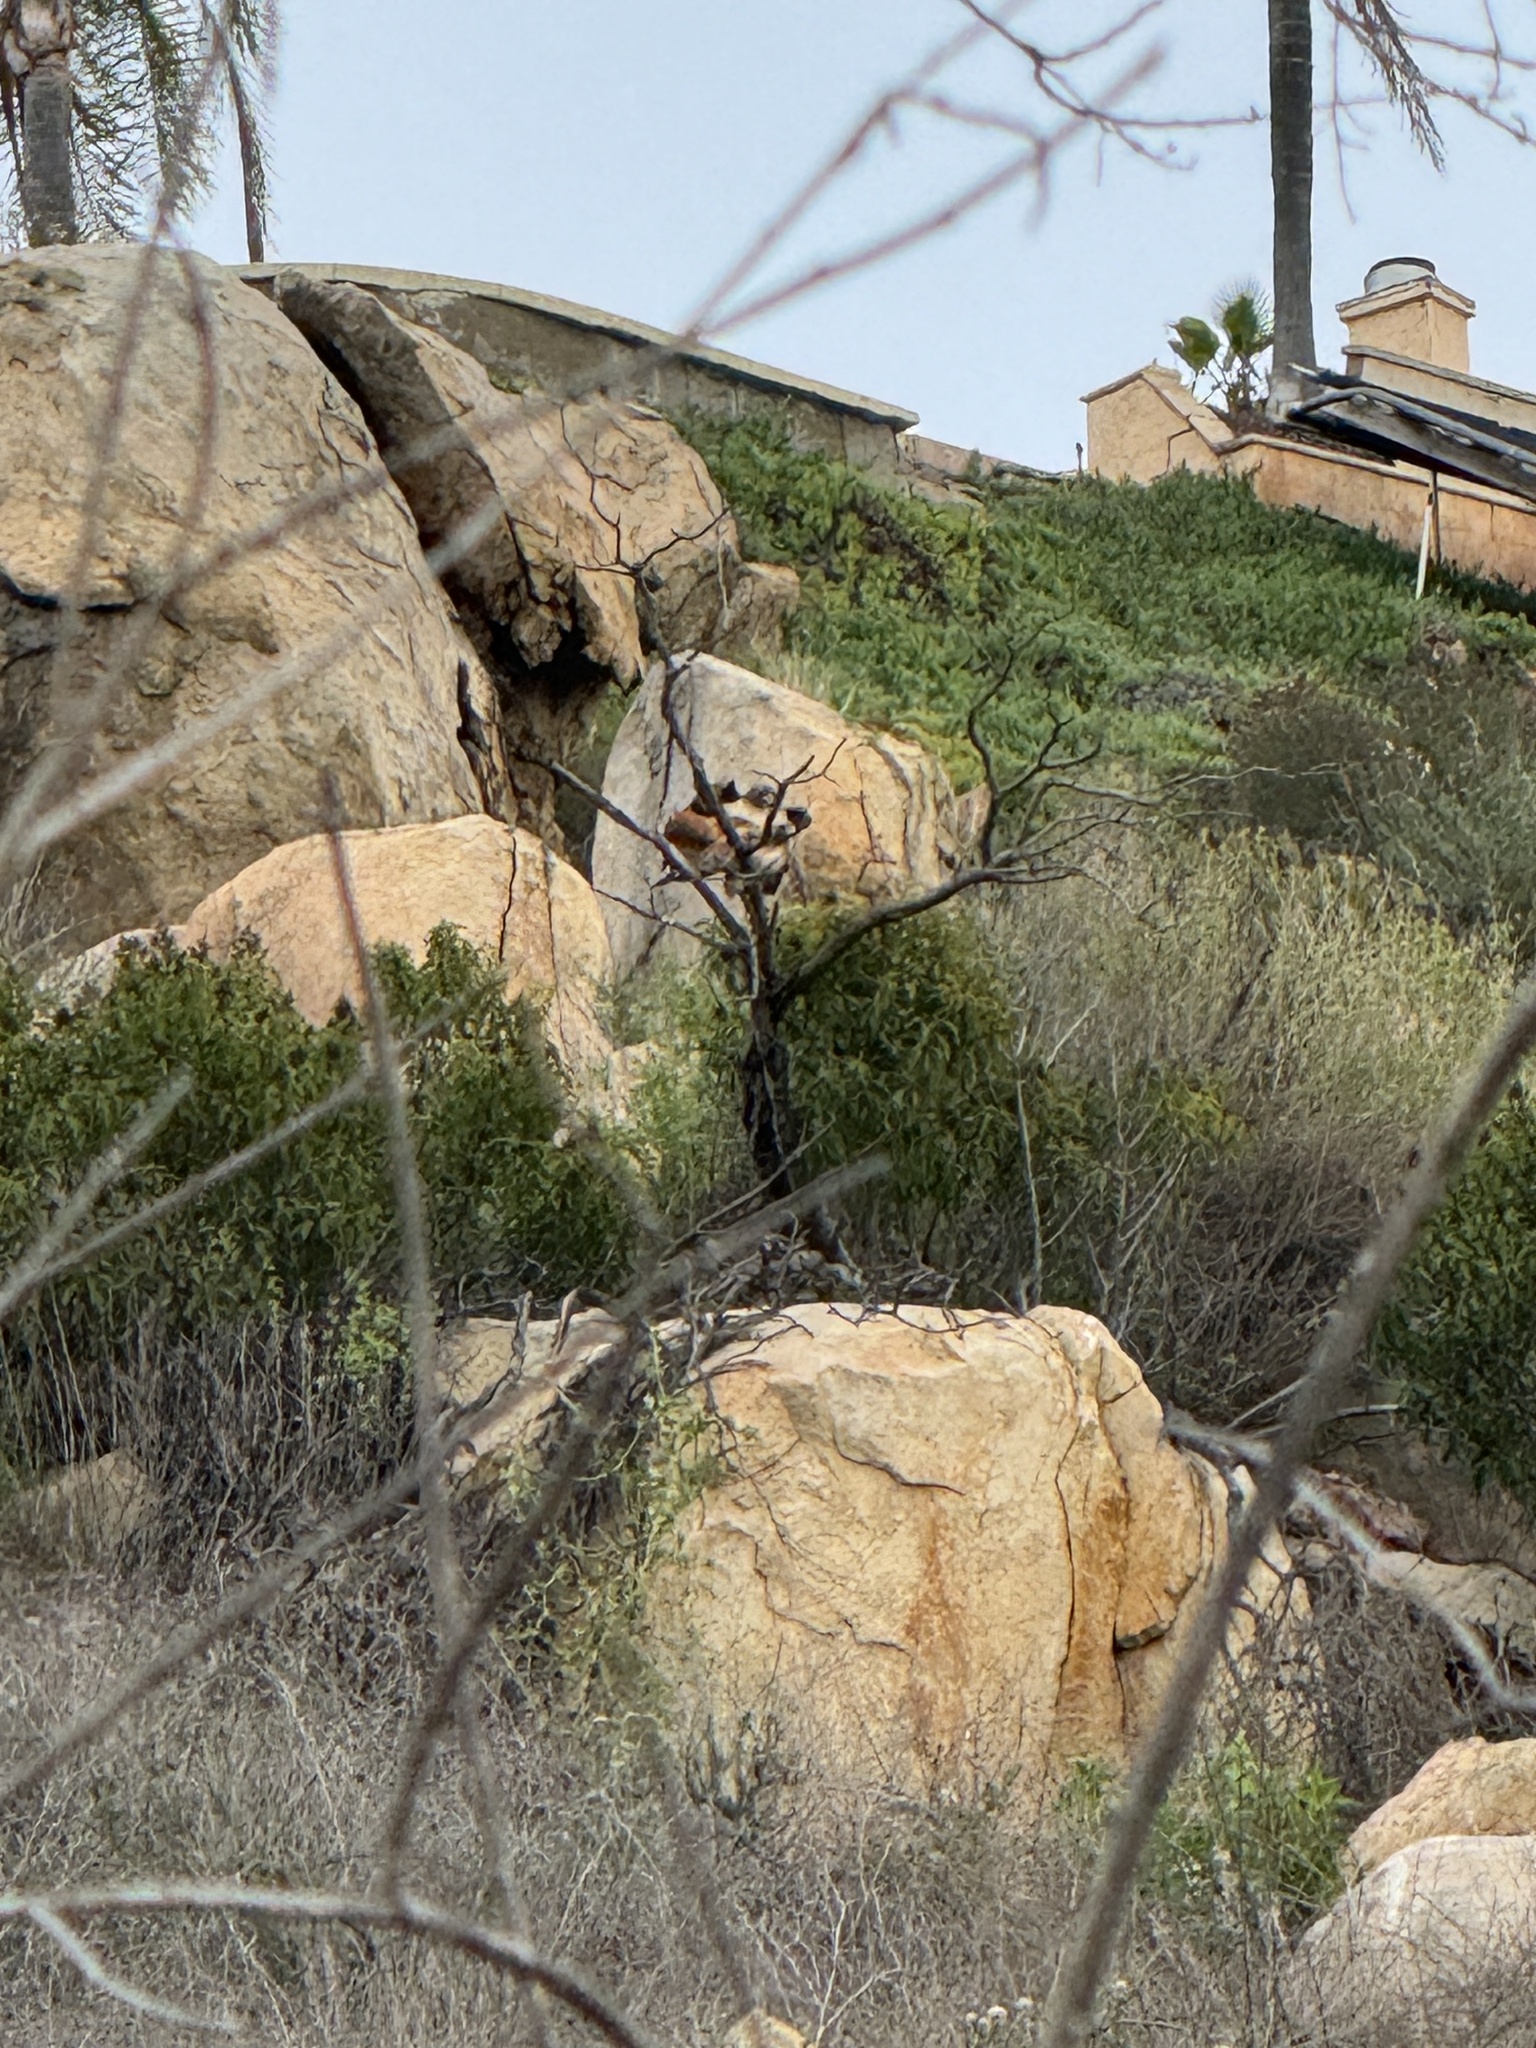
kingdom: Animalia
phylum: Chordata
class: Aves
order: Accipitriformes
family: Accipitridae
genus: Buteo
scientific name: Buteo jamaicensis
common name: Red-tailed hawk
